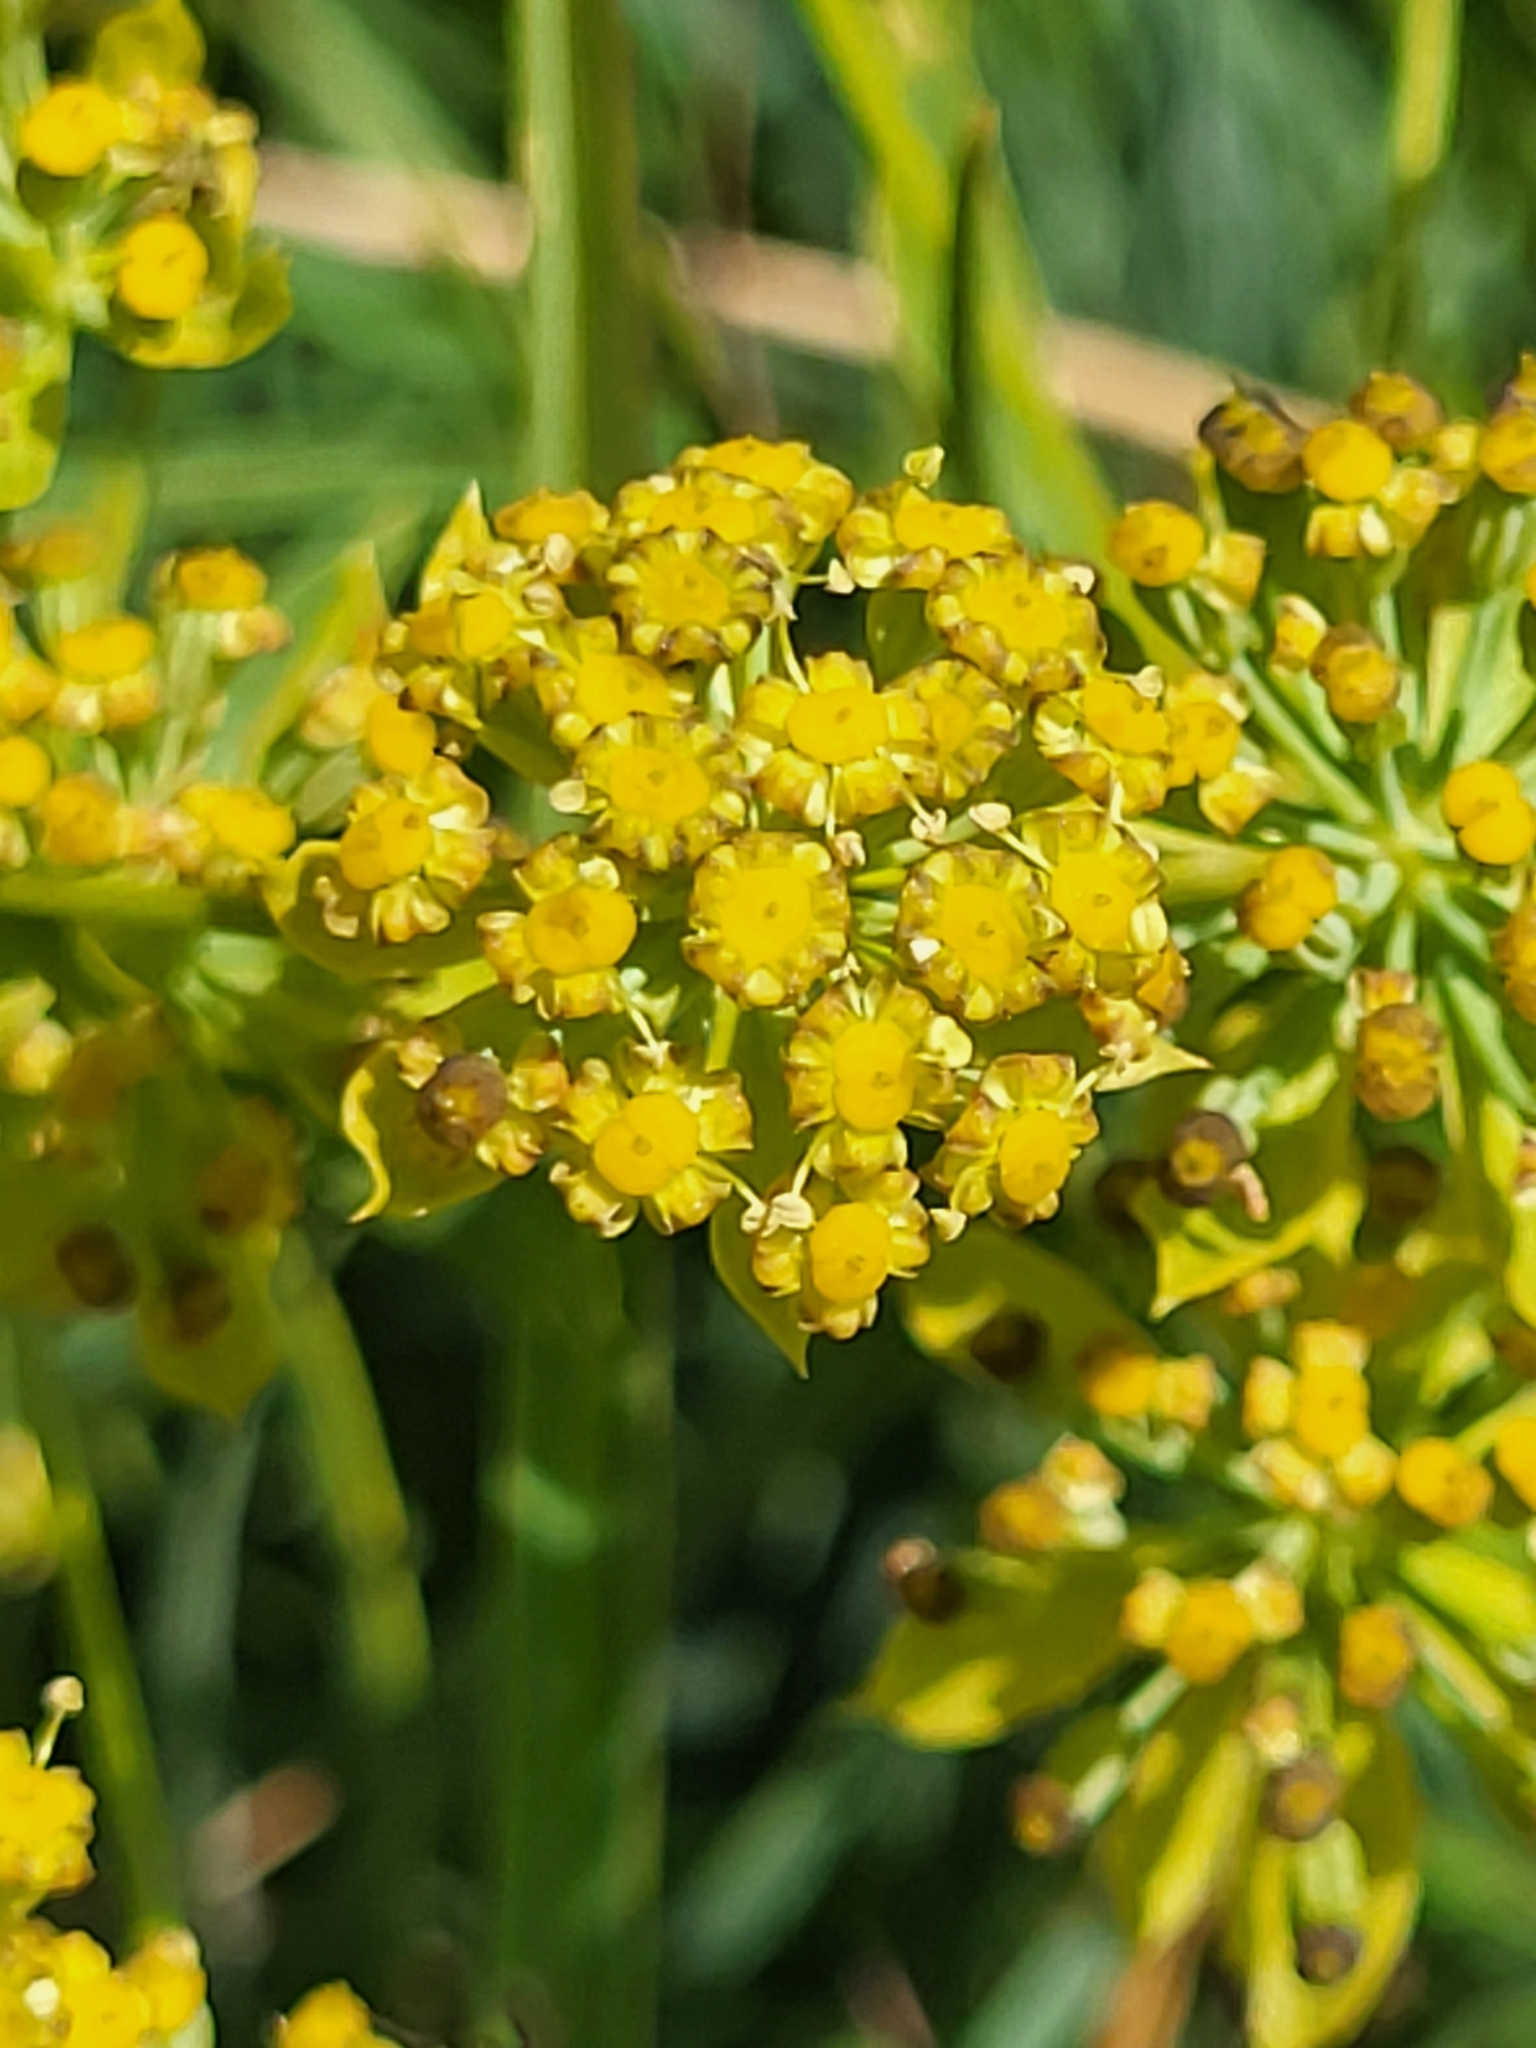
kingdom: Plantae
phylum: Tracheophyta
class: Magnoliopsida
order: Apiales
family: Apiaceae
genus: Bupleurum
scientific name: Bupleurum petraeum
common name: Rock hare's-ear
